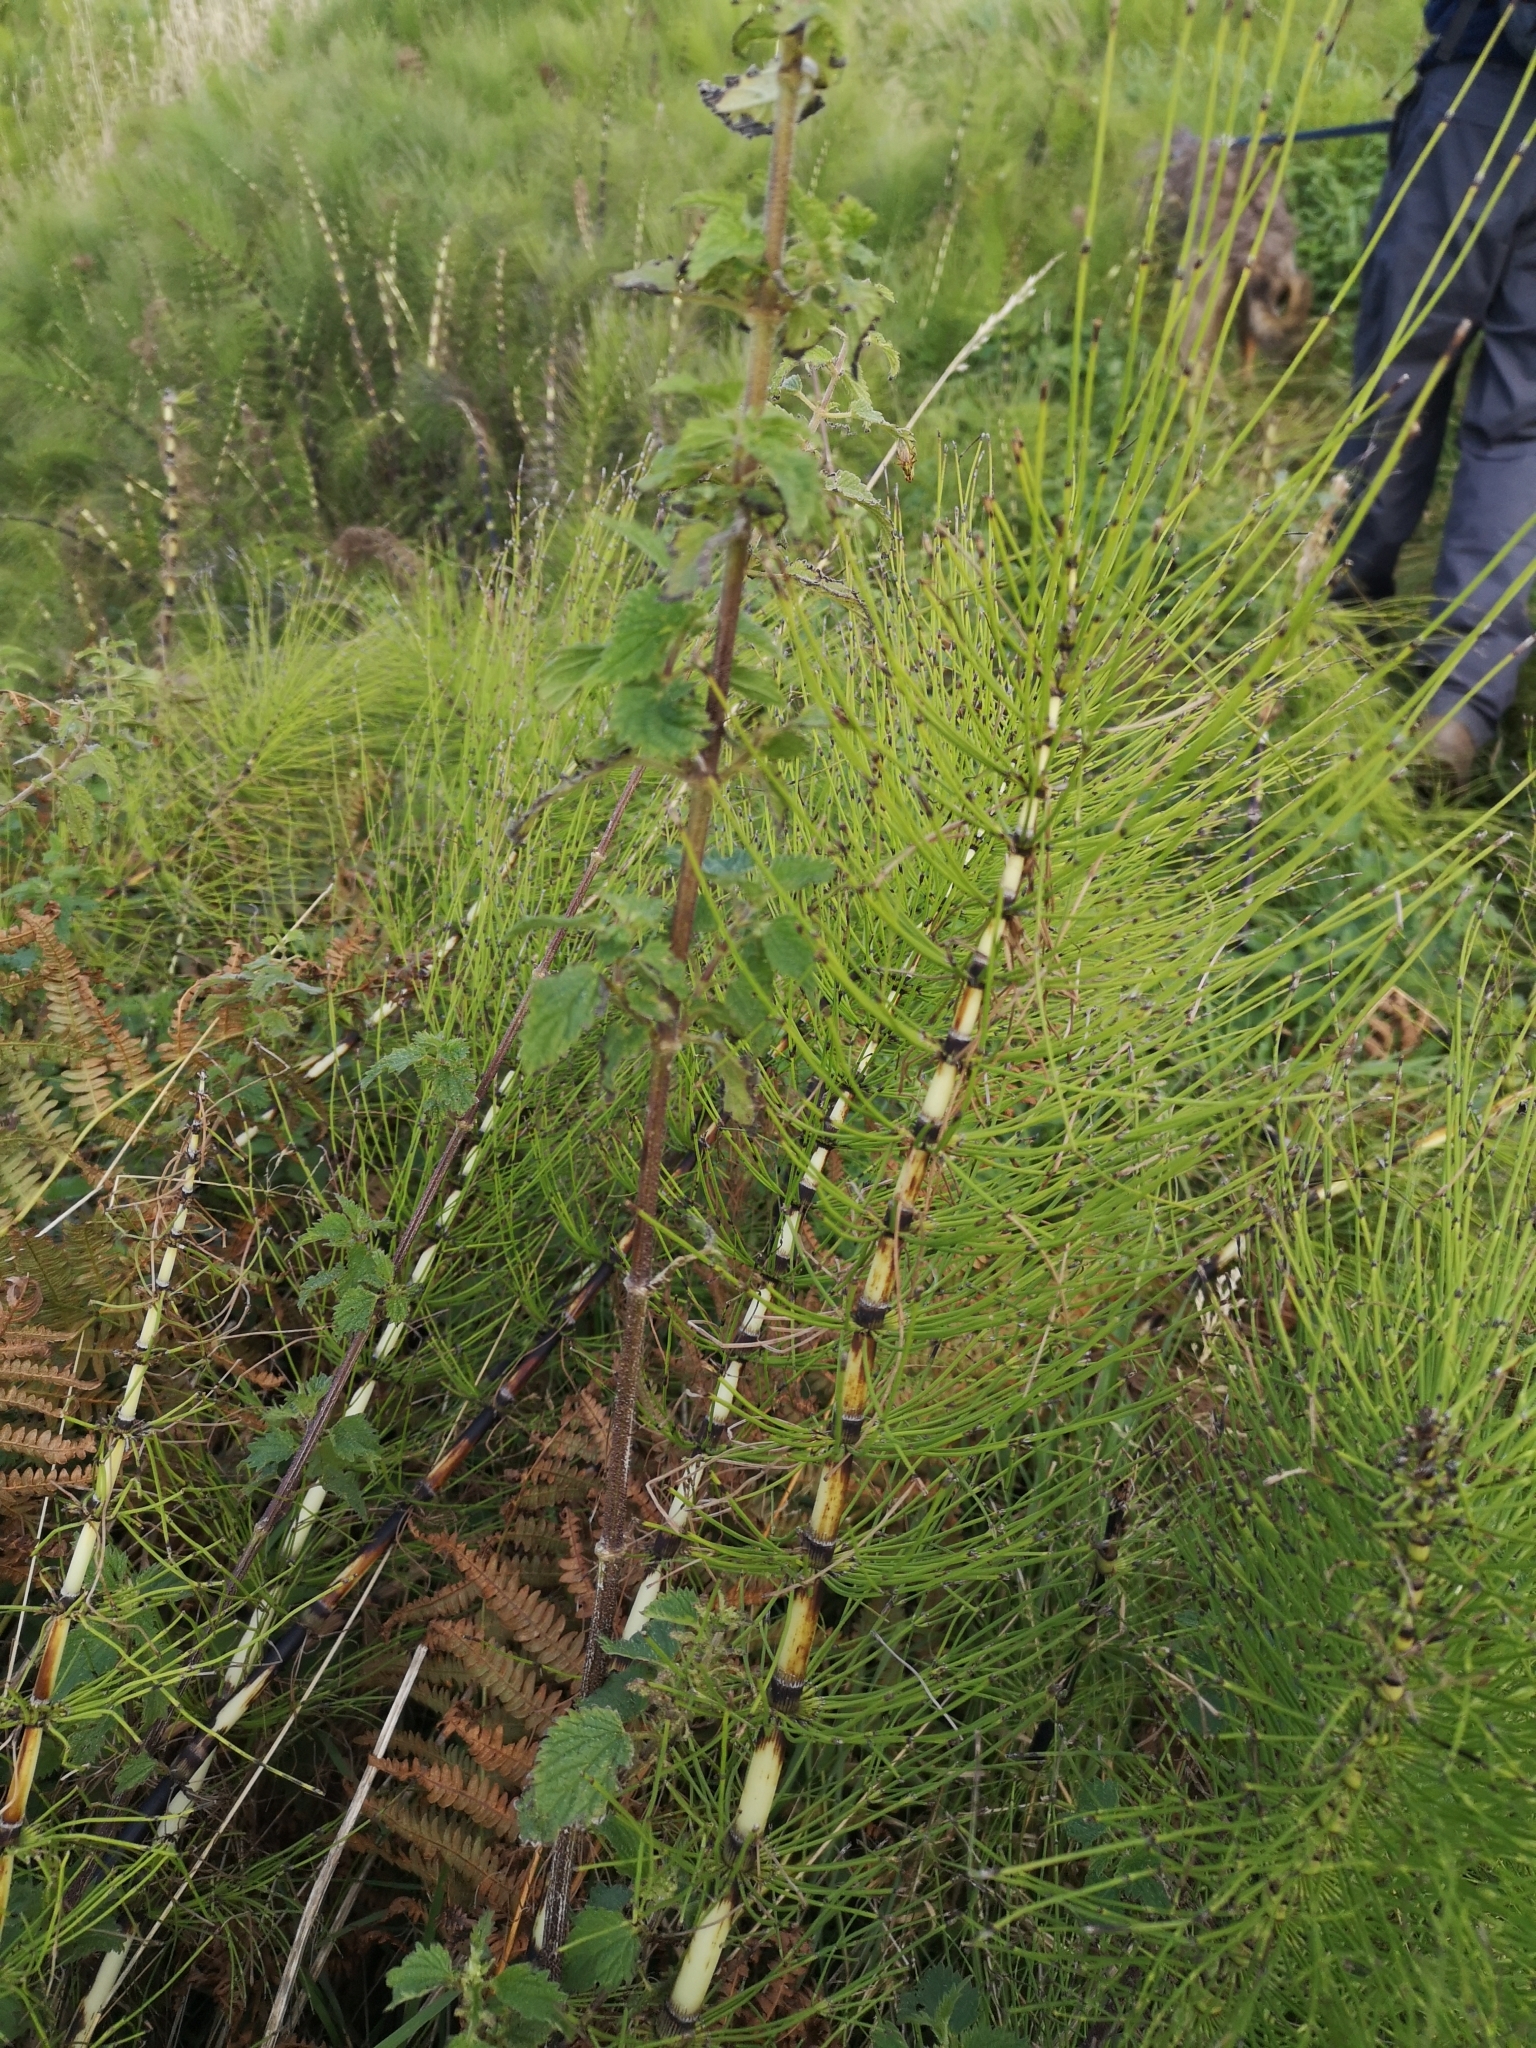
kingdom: Plantae
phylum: Tracheophyta
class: Polypodiopsida
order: Equisetales
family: Equisetaceae
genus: Equisetum
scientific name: Equisetum telmateia
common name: Great horsetail
